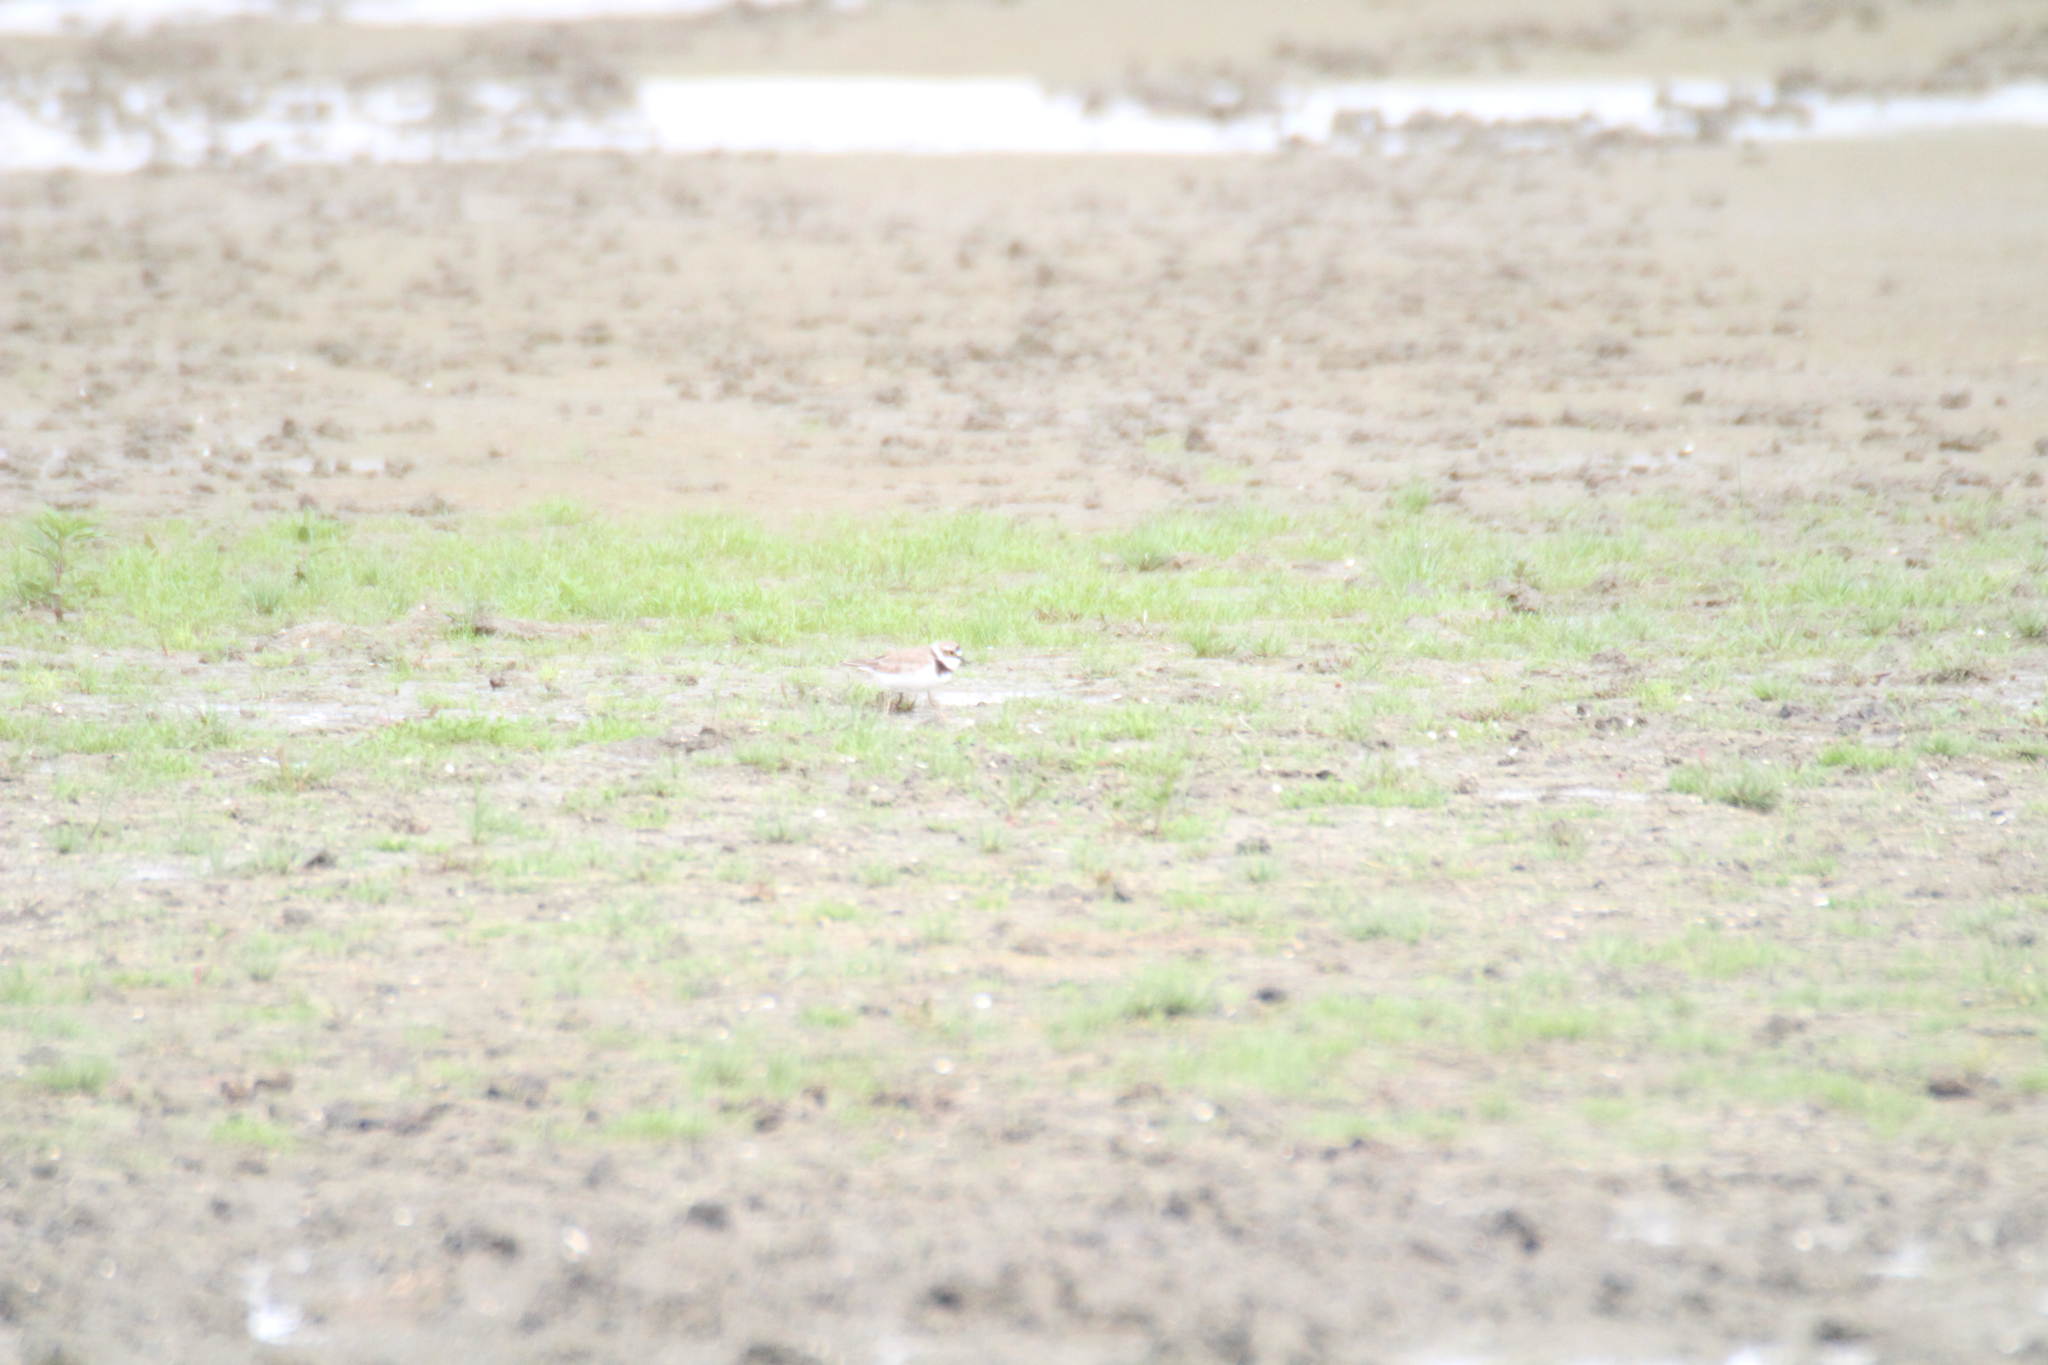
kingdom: Animalia
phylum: Chordata
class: Aves
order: Charadriiformes
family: Charadriidae
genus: Charadrius
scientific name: Charadrius dubius
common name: Little ringed plover
